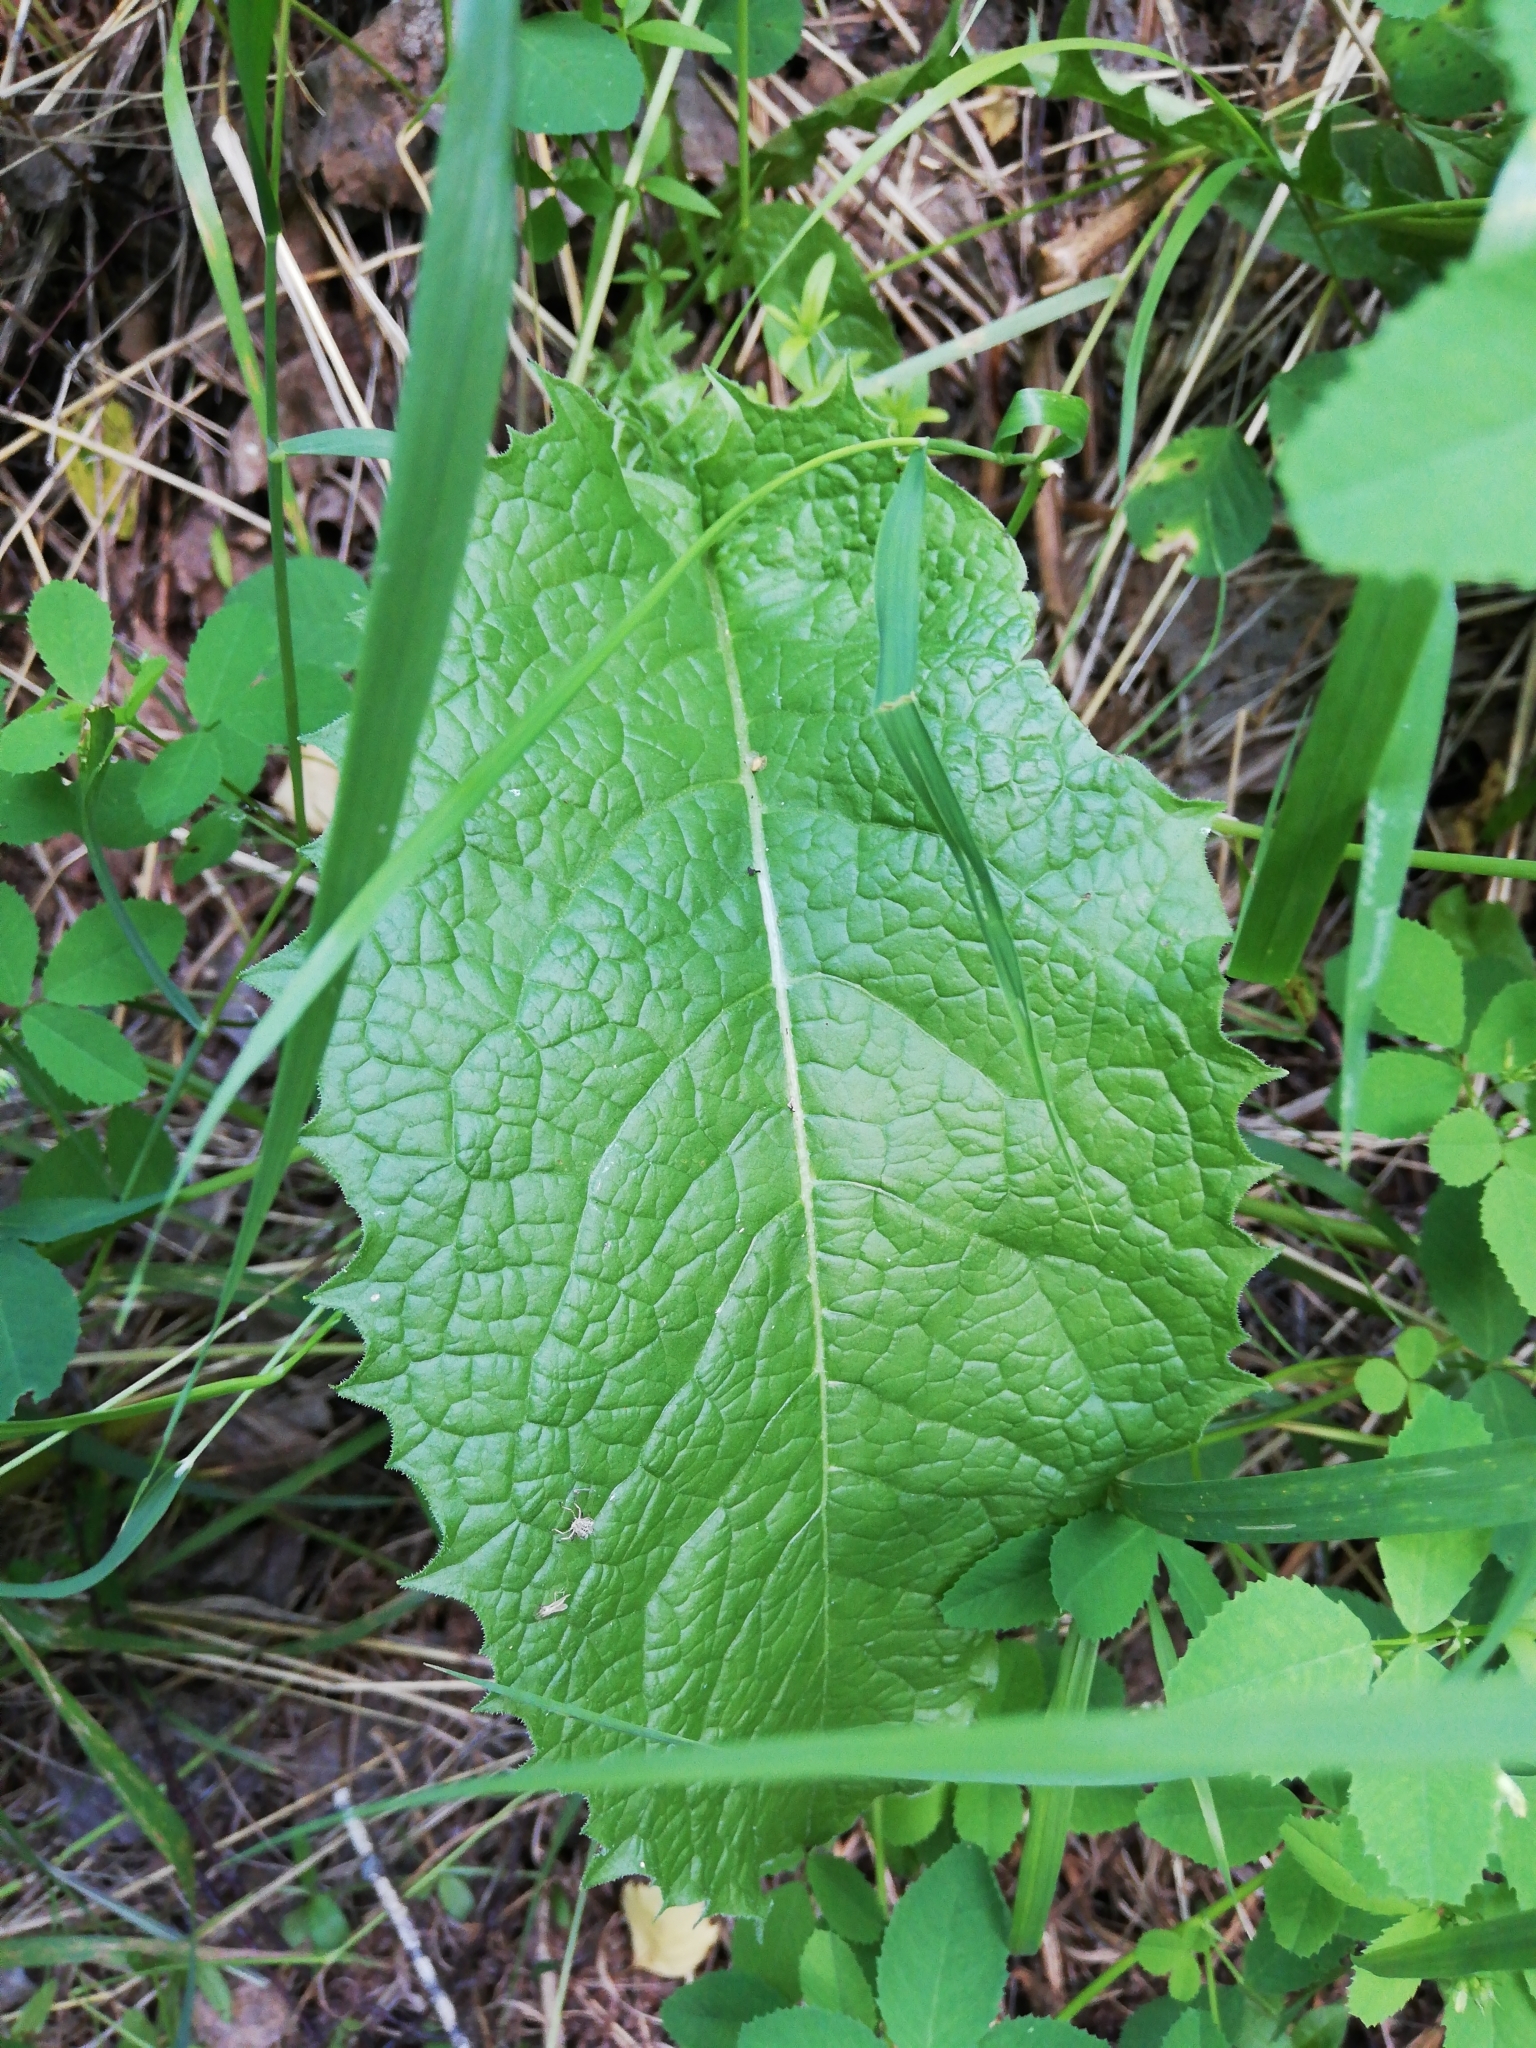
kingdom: Plantae
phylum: Tracheophyta
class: Magnoliopsida
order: Asterales
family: Asteraceae
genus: Crepis
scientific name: Crepis sibirica
